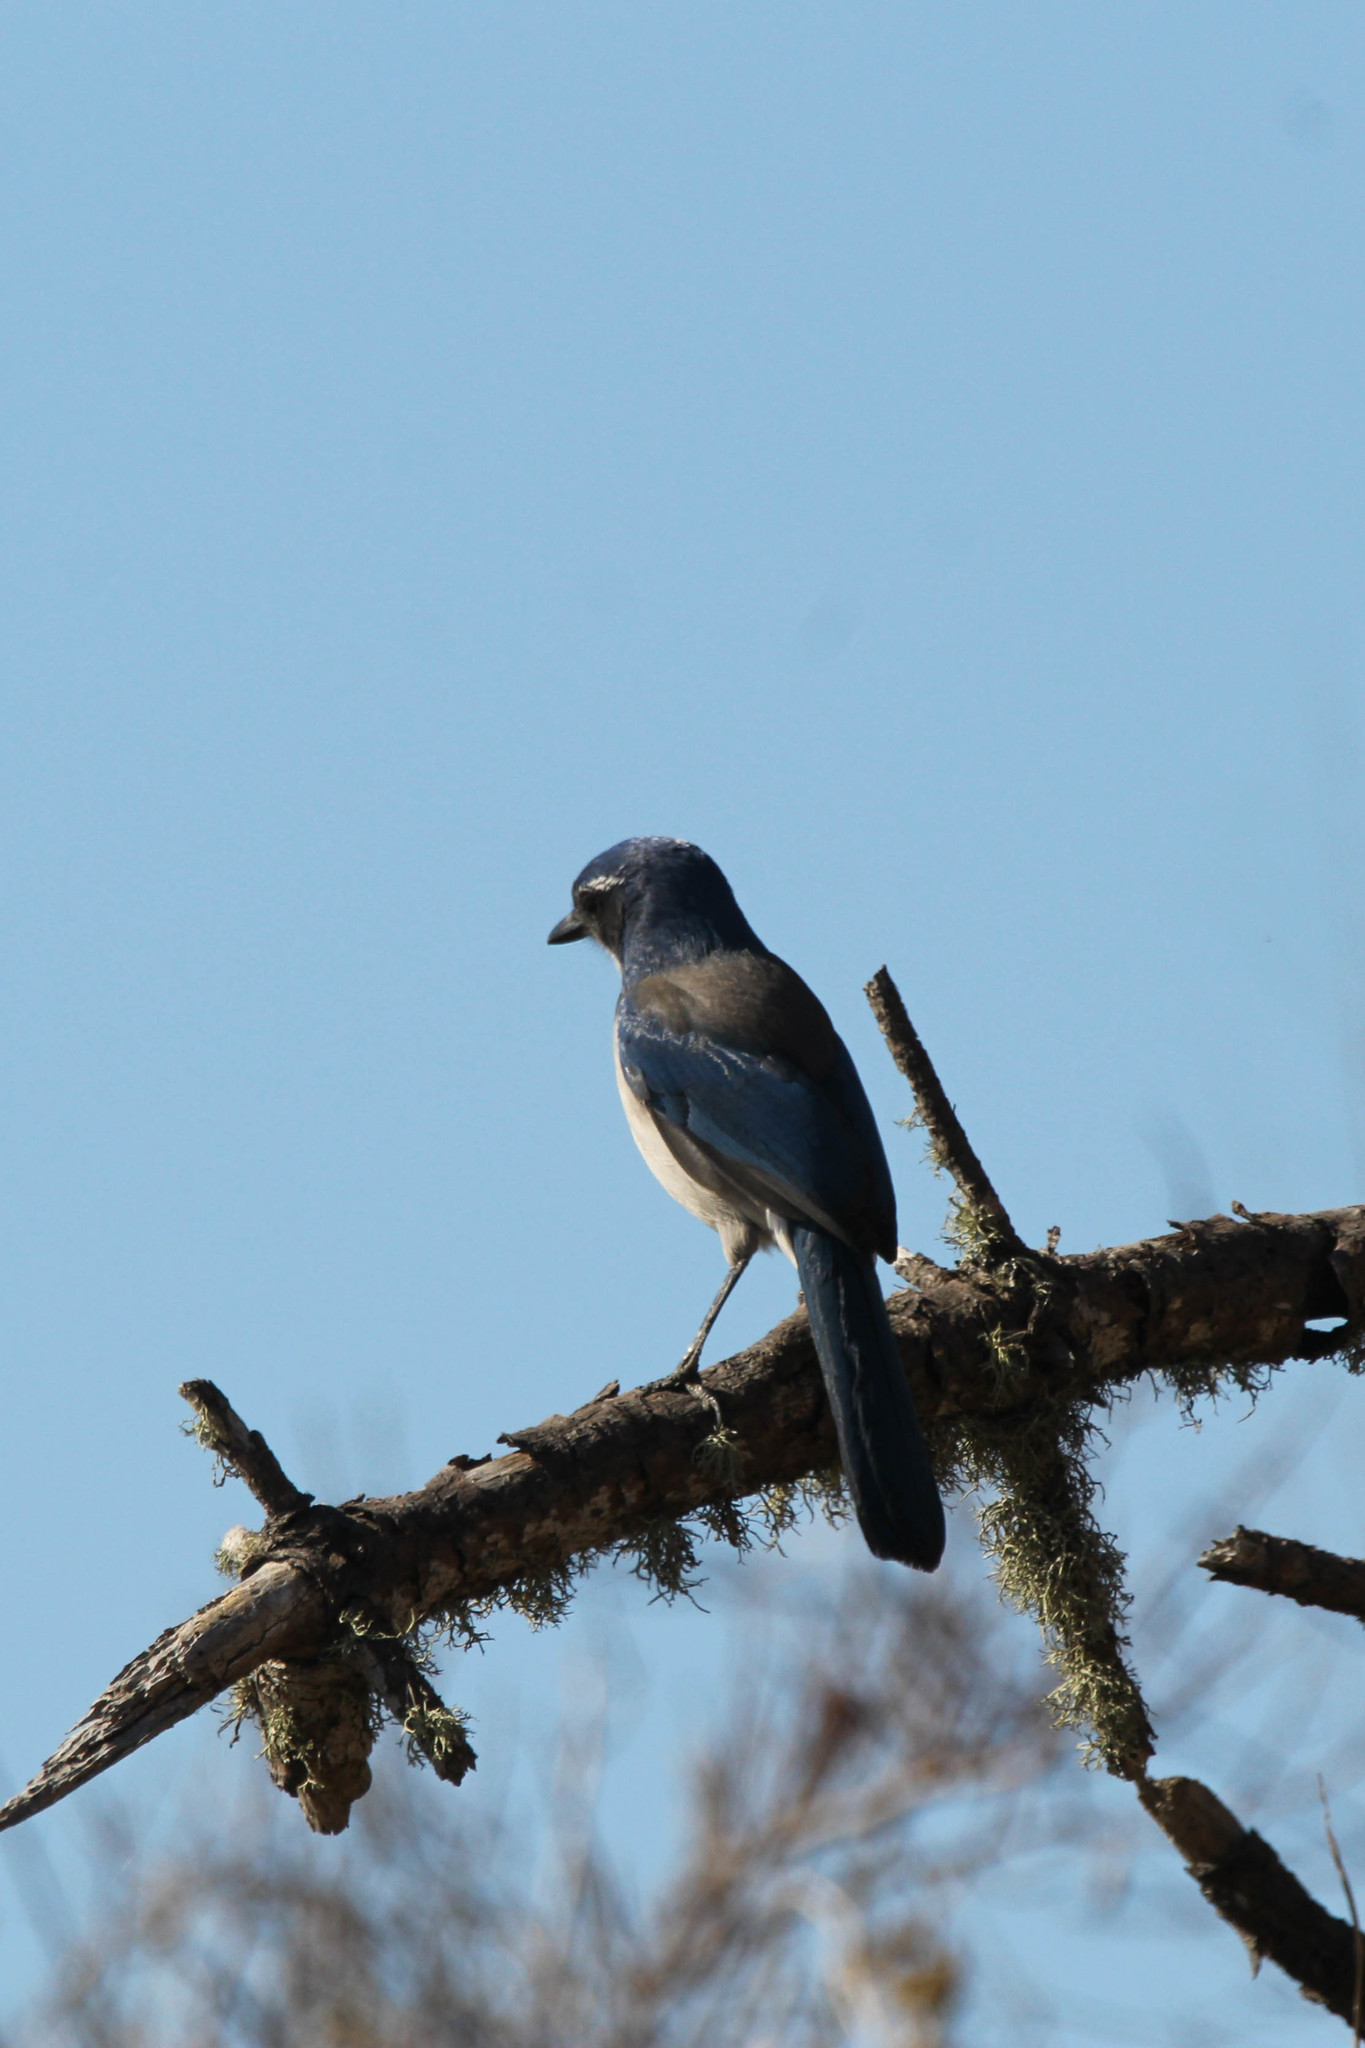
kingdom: Animalia
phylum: Chordata
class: Aves
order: Passeriformes
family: Corvidae
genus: Aphelocoma
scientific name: Aphelocoma californica
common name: California scrub-jay
